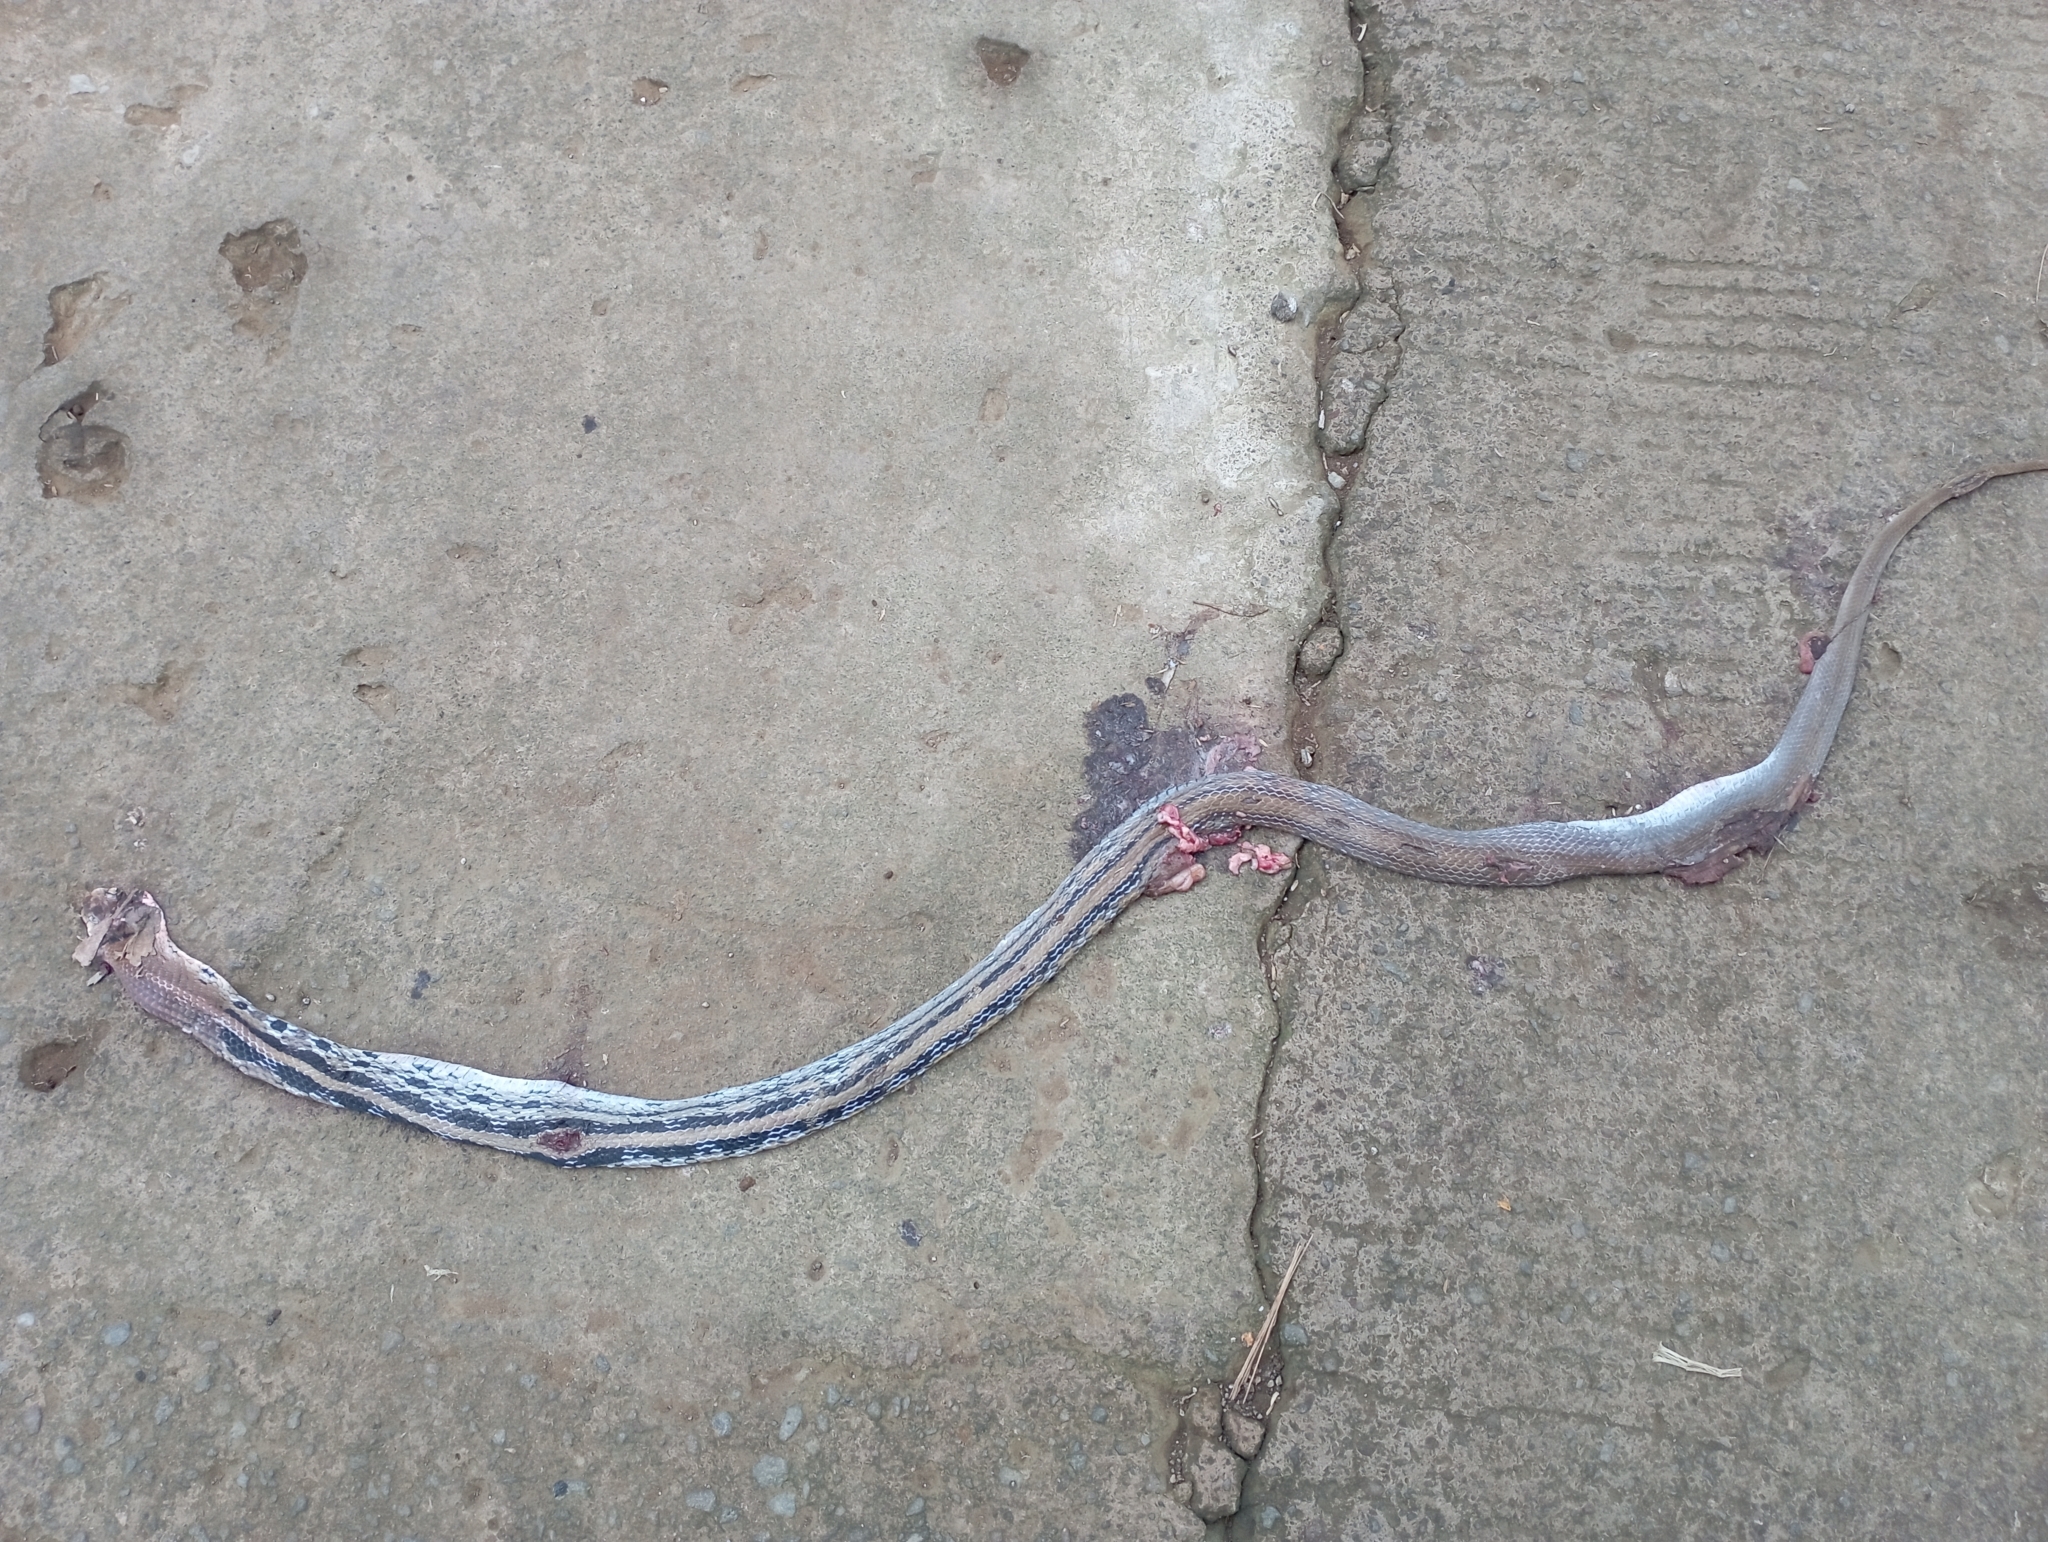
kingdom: Animalia
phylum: Chordata
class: Squamata
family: Colubridae
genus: Coelognathus
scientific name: Coelognathus radiatus
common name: Copperhead rat snake
